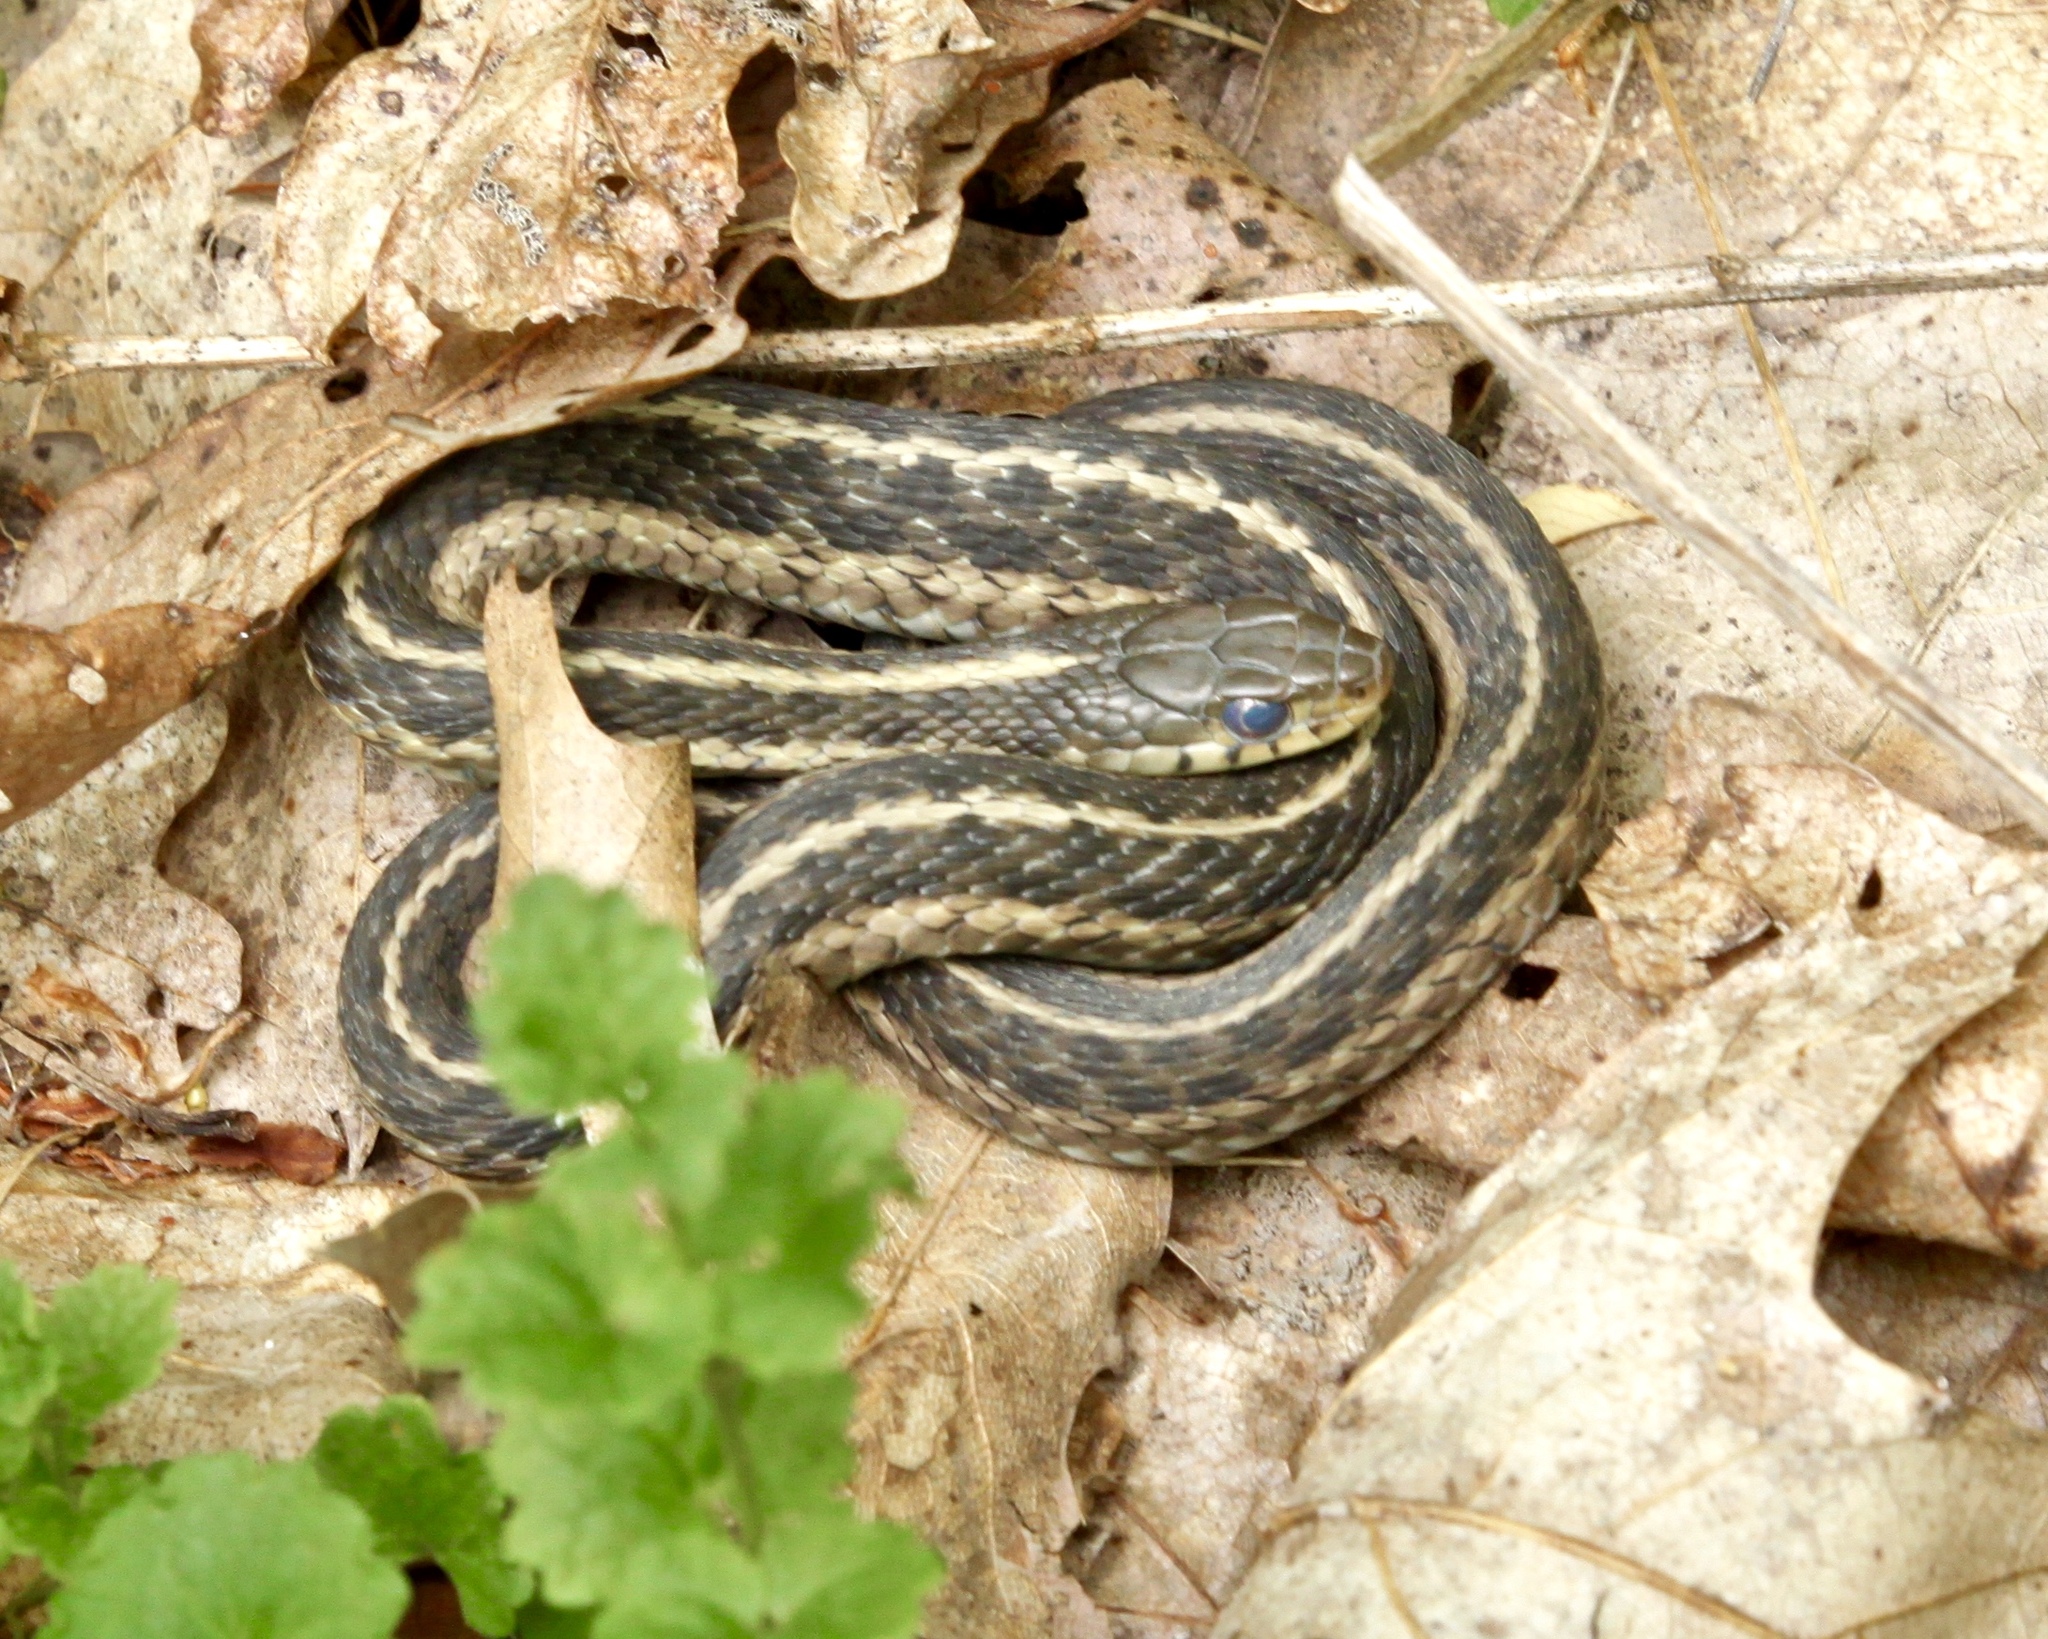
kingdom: Animalia
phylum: Chordata
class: Squamata
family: Colubridae
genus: Thamnophis
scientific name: Thamnophis sirtalis
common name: Common garter snake
